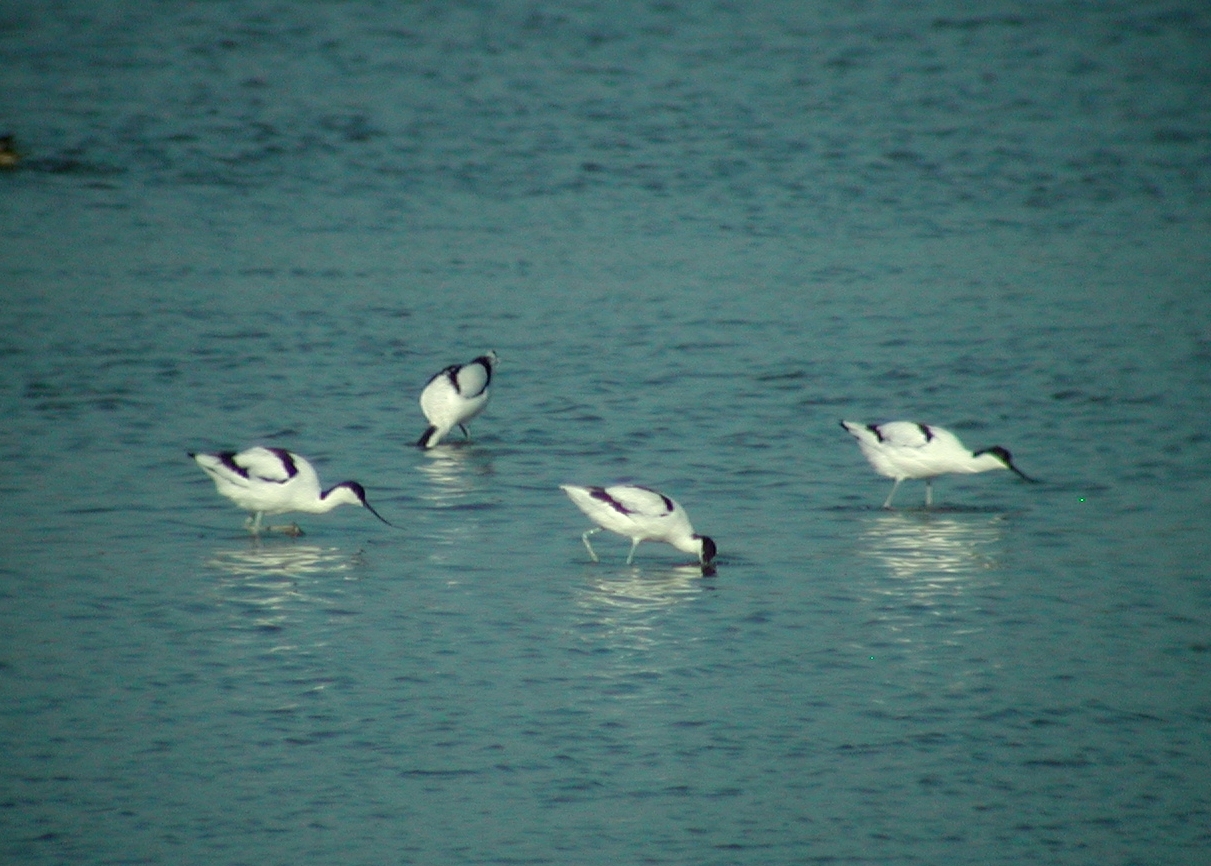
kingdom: Animalia
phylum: Chordata
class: Aves
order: Charadriiformes
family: Recurvirostridae
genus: Recurvirostra
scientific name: Recurvirostra avosetta
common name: Pied avocet
